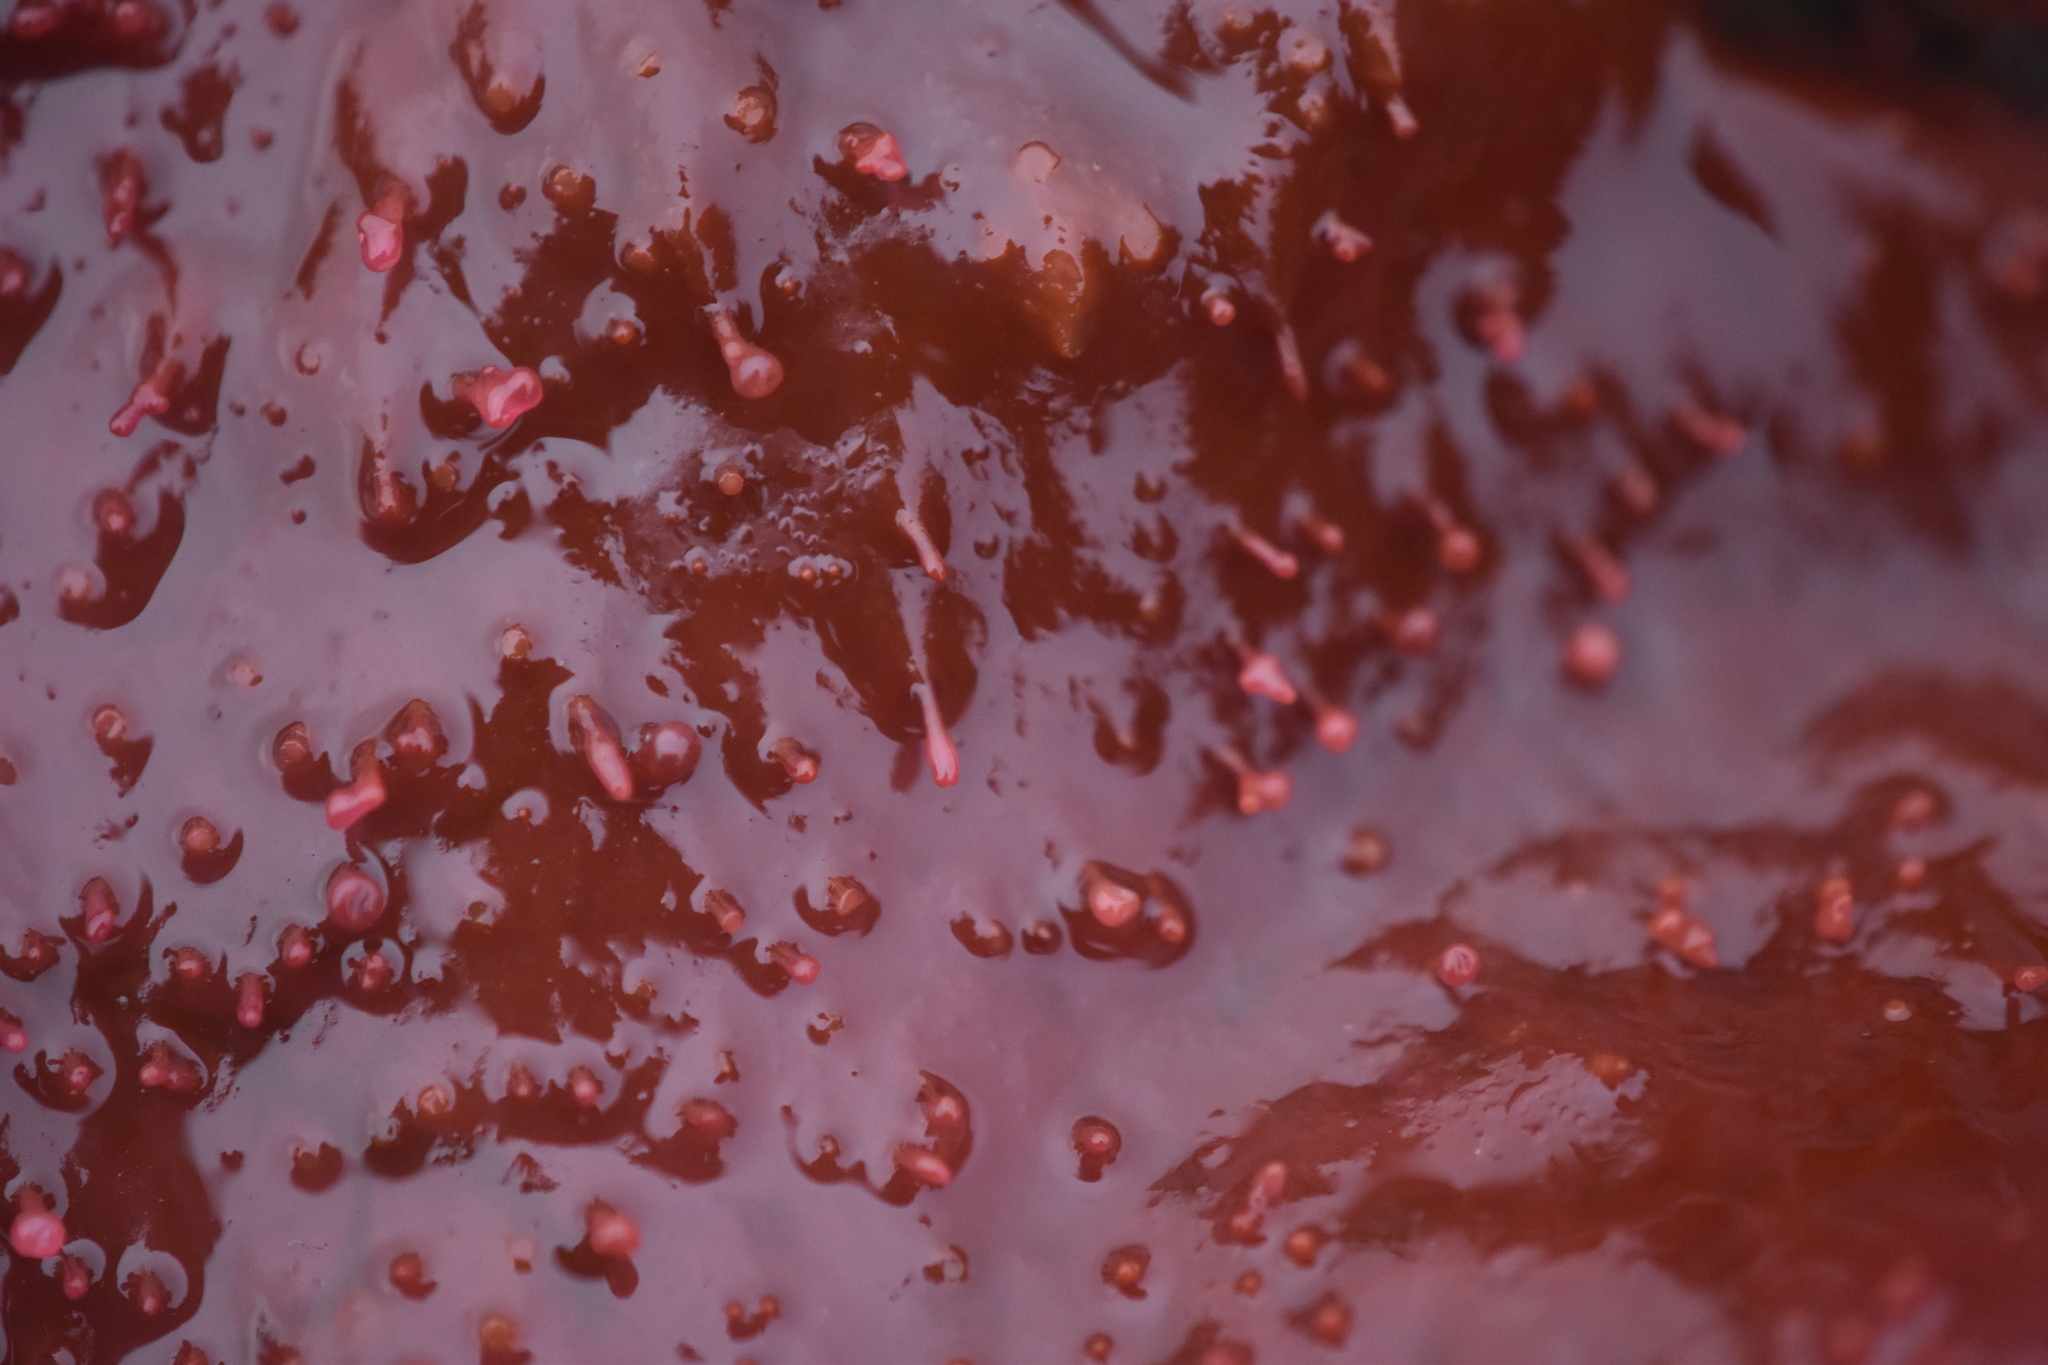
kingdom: Plantae
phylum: Rhodophyta
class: Florideophyceae
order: Gigartinales
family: Gigartinaceae
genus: Chondracanthus
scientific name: Chondracanthus exasperatus
